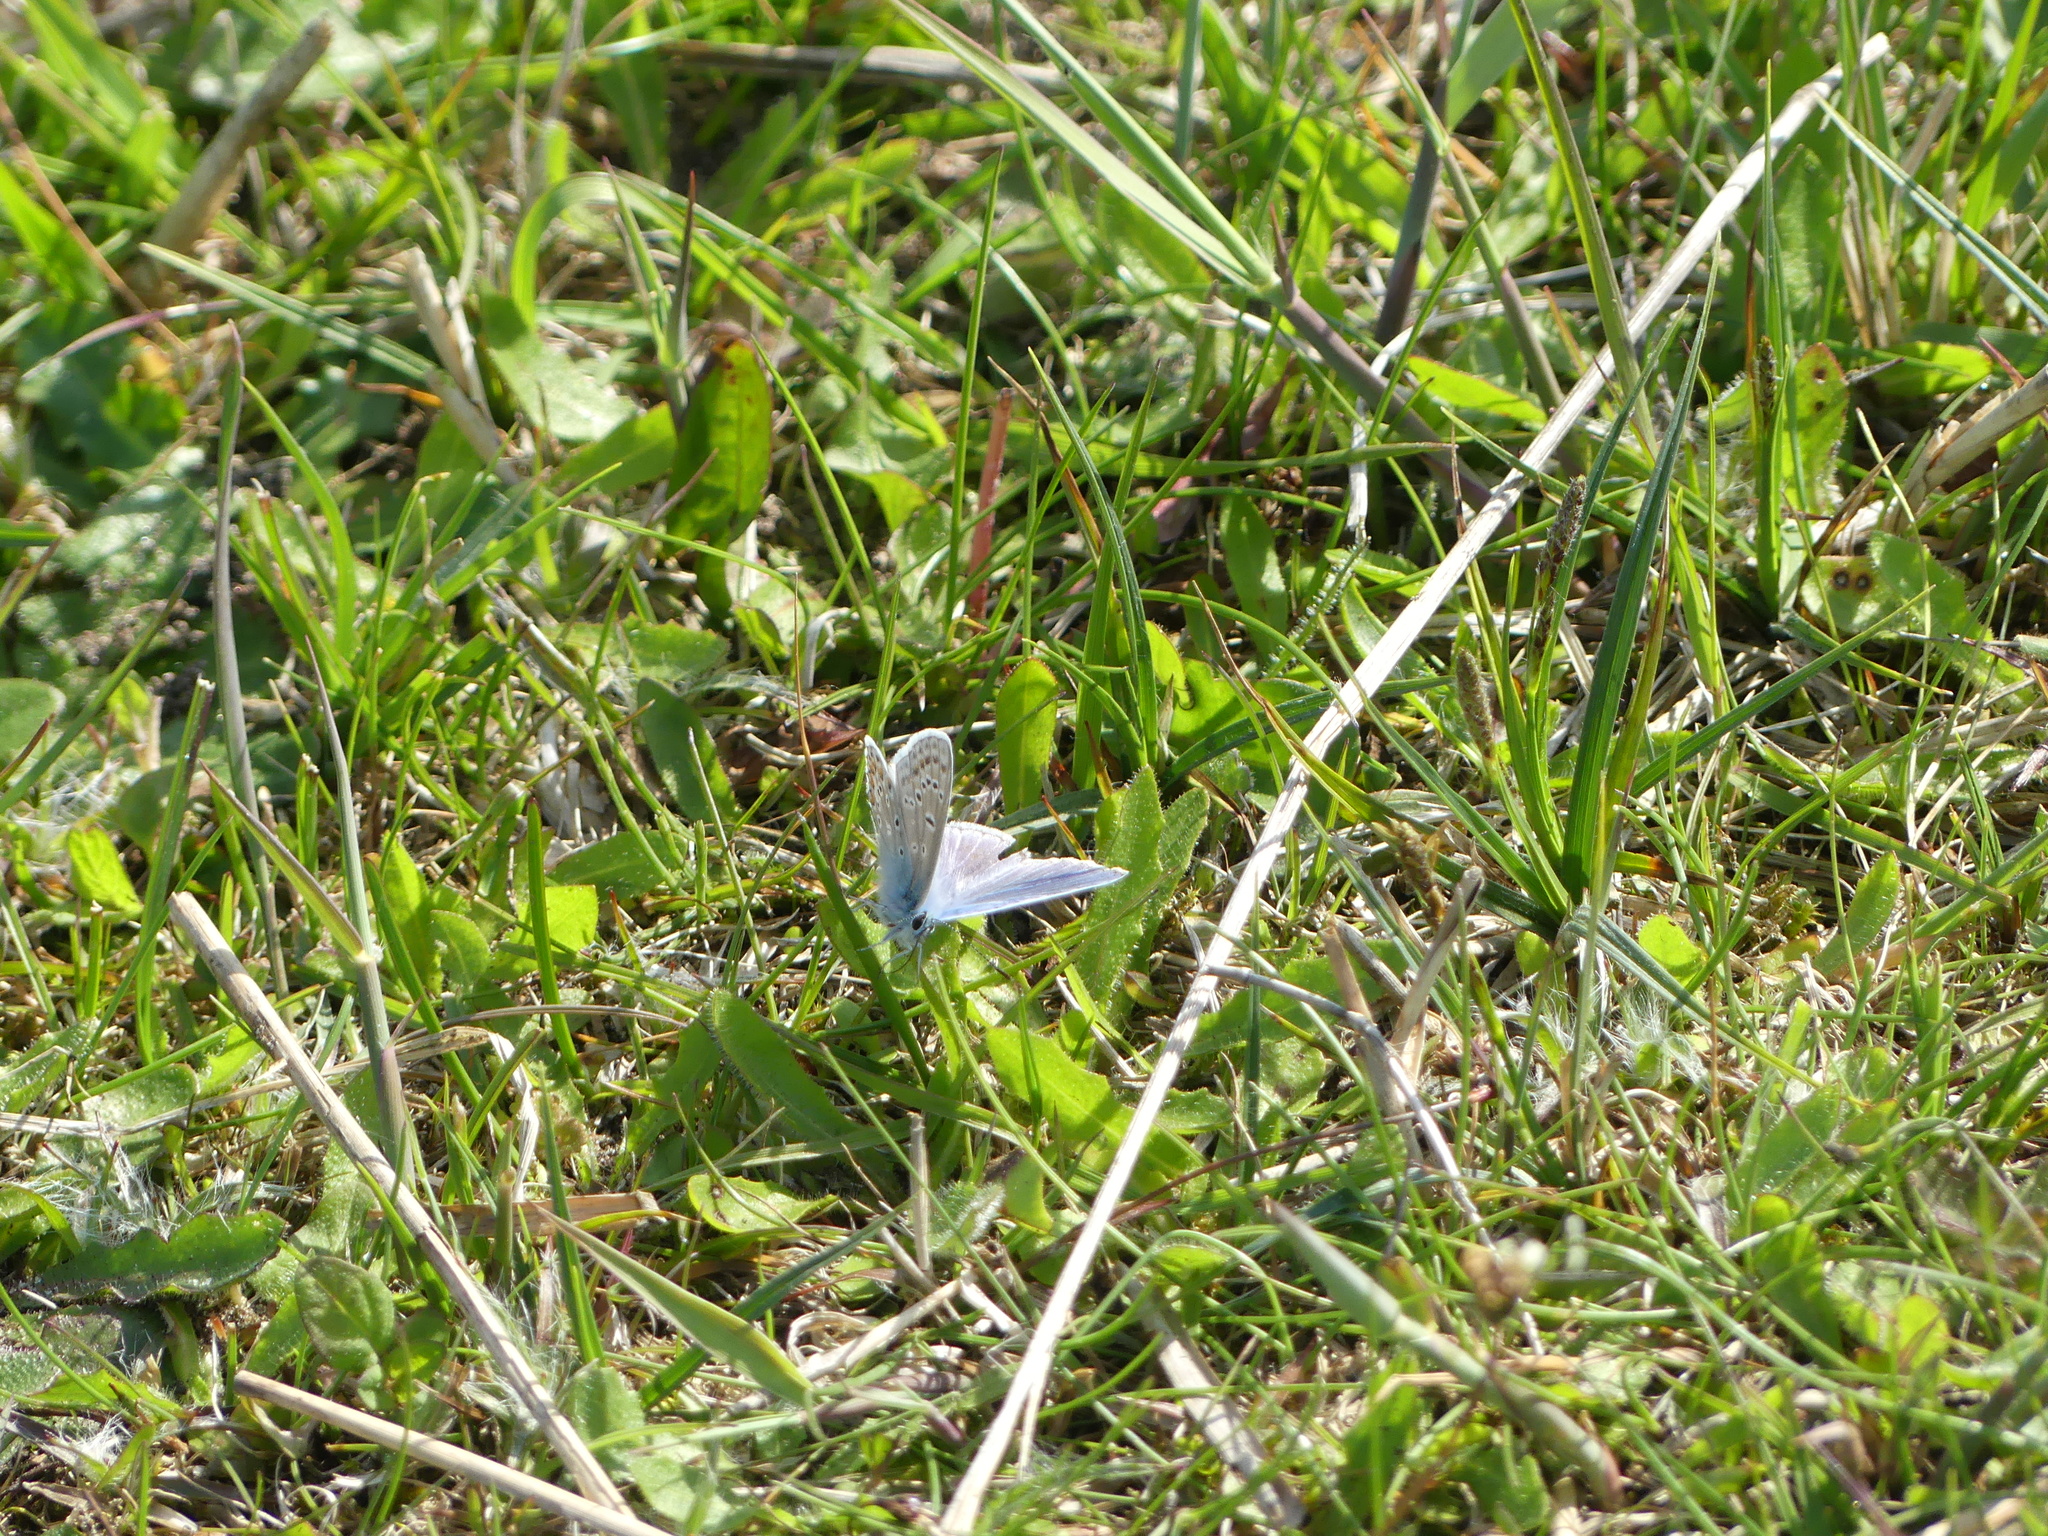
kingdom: Animalia
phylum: Arthropoda
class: Insecta
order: Lepidoptera
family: Lycaenidae
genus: Polyommatus
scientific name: Polyommatus icarus
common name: Common blue
